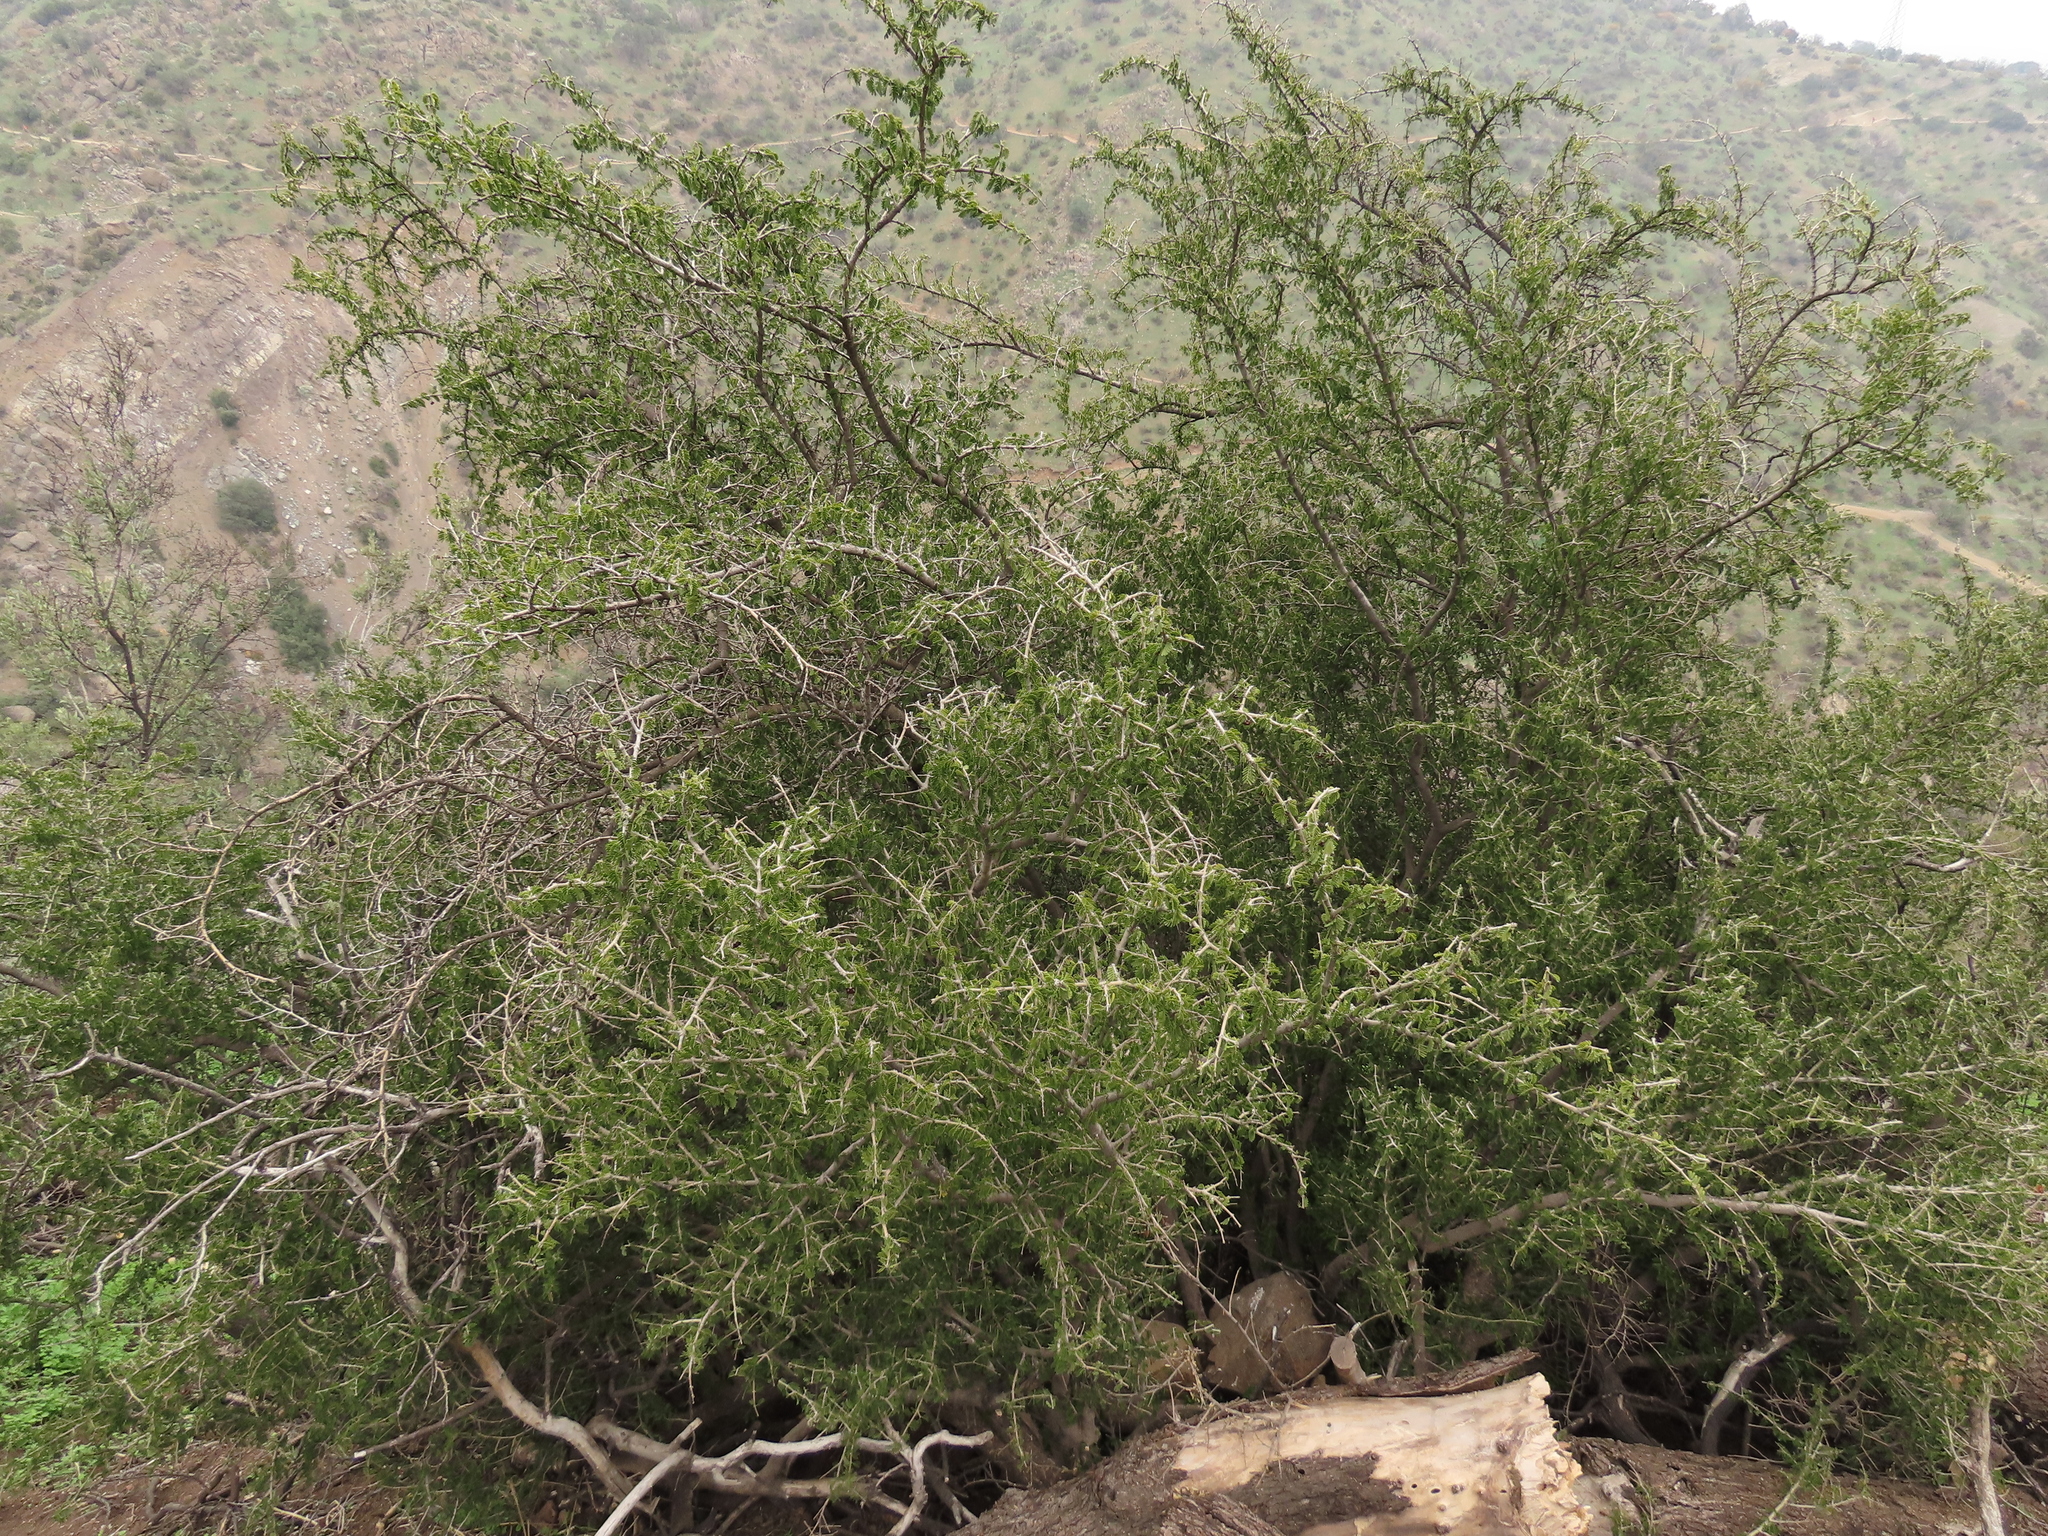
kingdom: Plantae
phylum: Tracheophyta
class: Magnoliopsida
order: Zygophyllales
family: Zygophyllaceae
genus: Porlieria
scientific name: Porlieria chilensis
